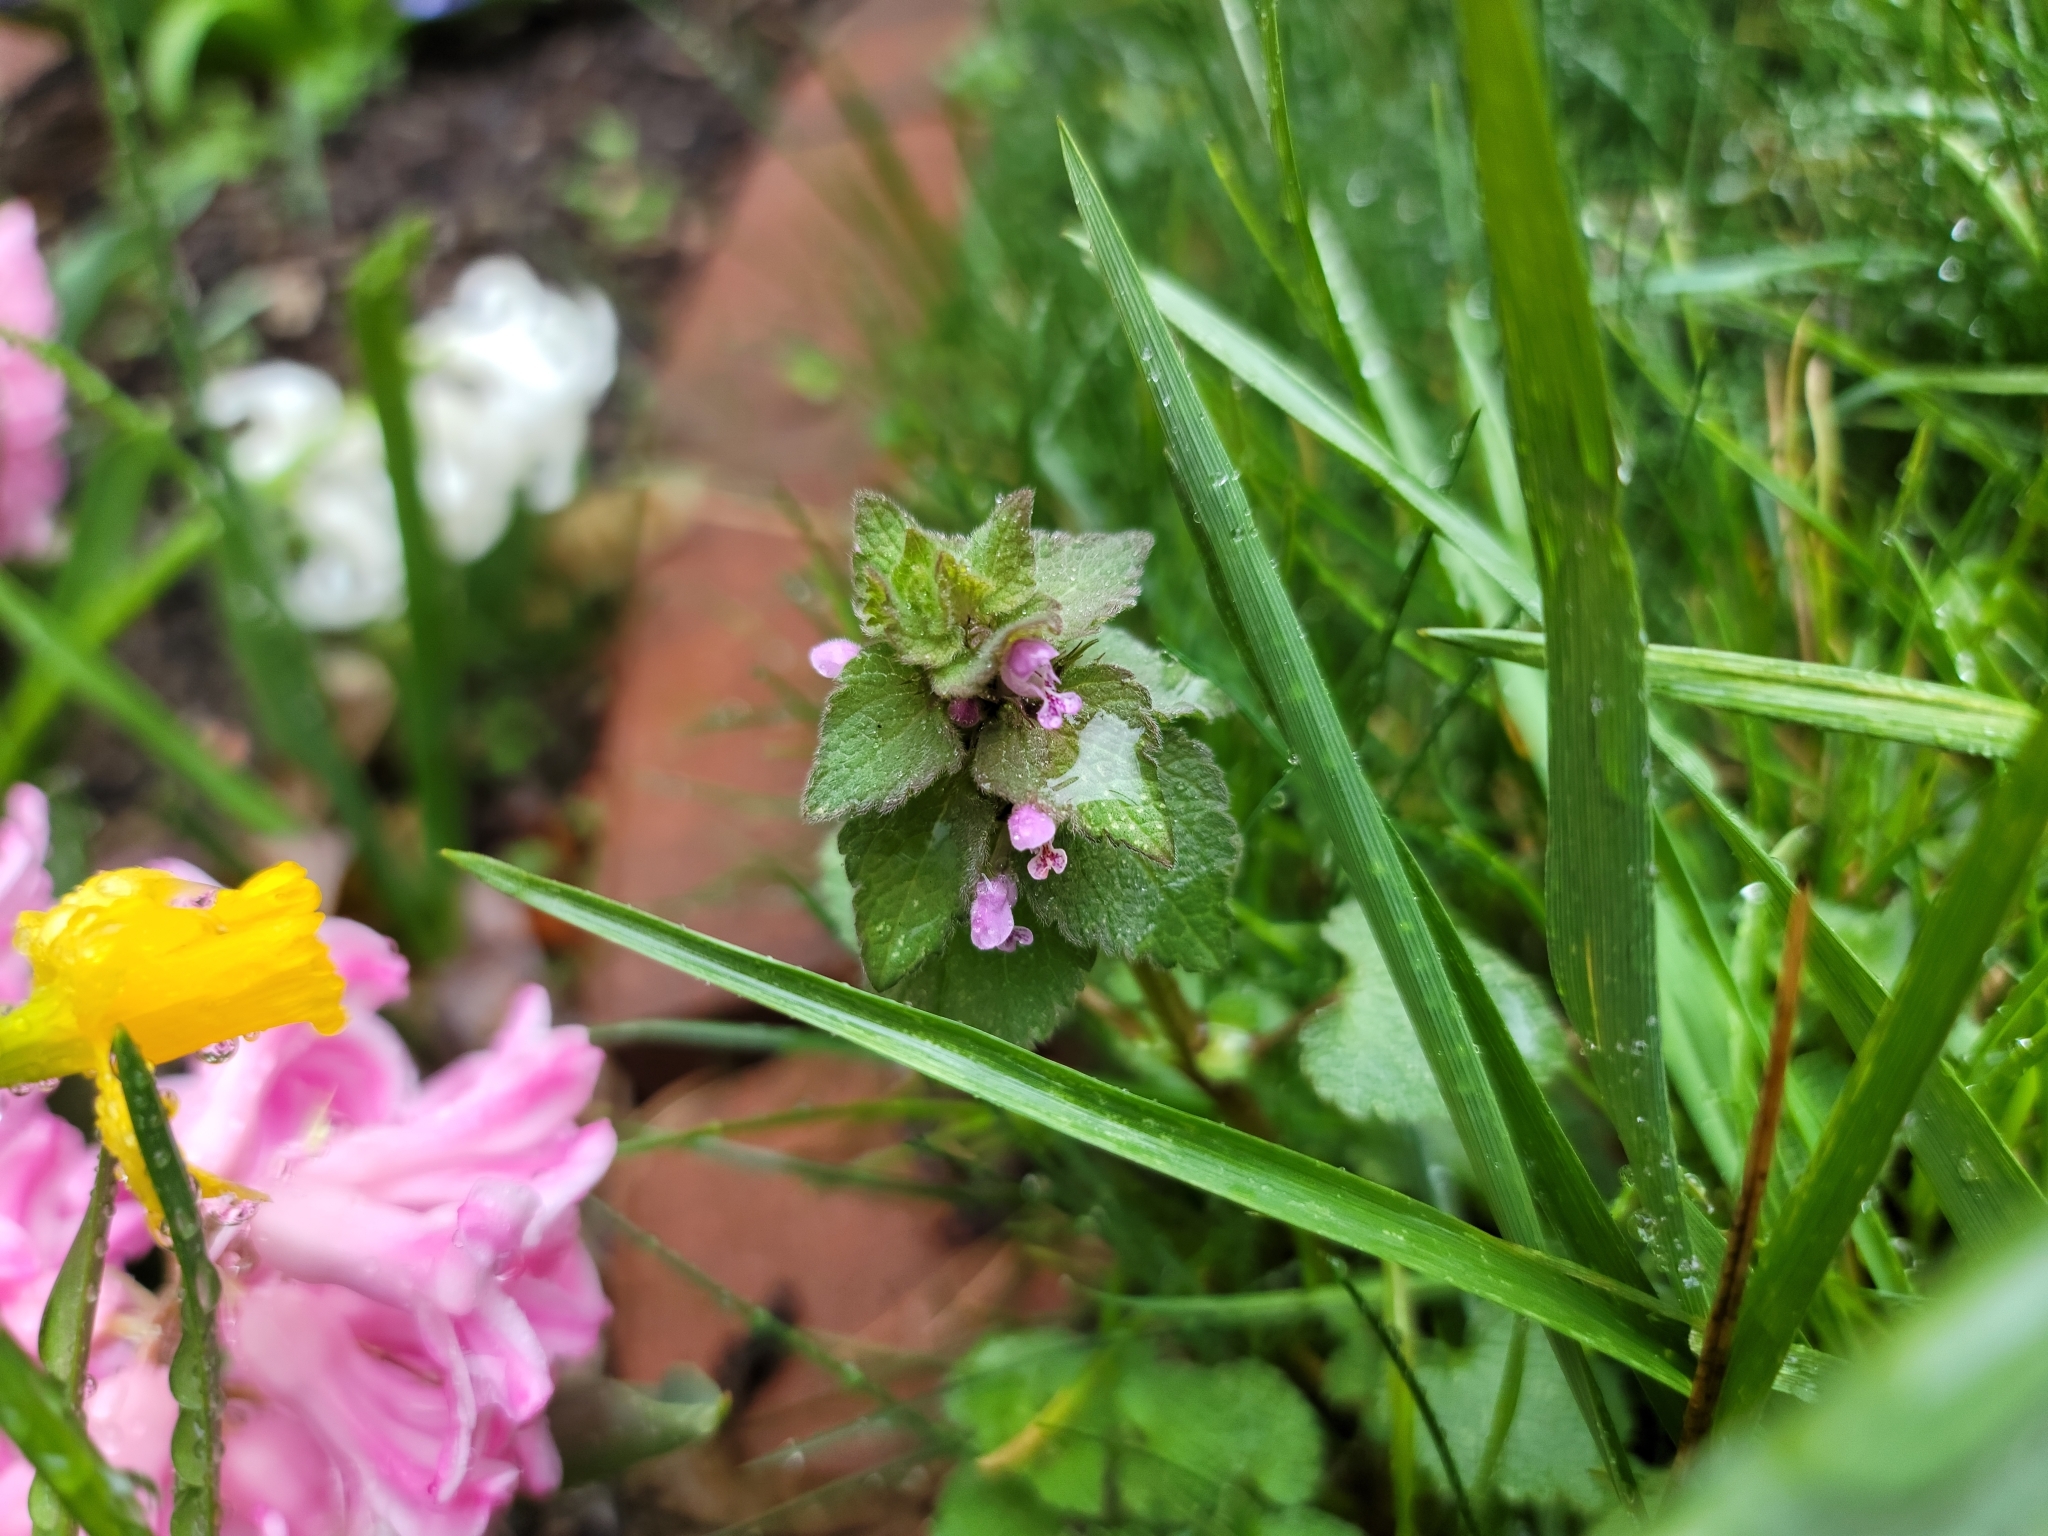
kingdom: Plantae
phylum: Tracheophyta
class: Magnoliopsida
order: Lamiales
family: Lamiaceae
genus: Lamium
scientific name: Lamium purpureum
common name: Red dead-nettle
